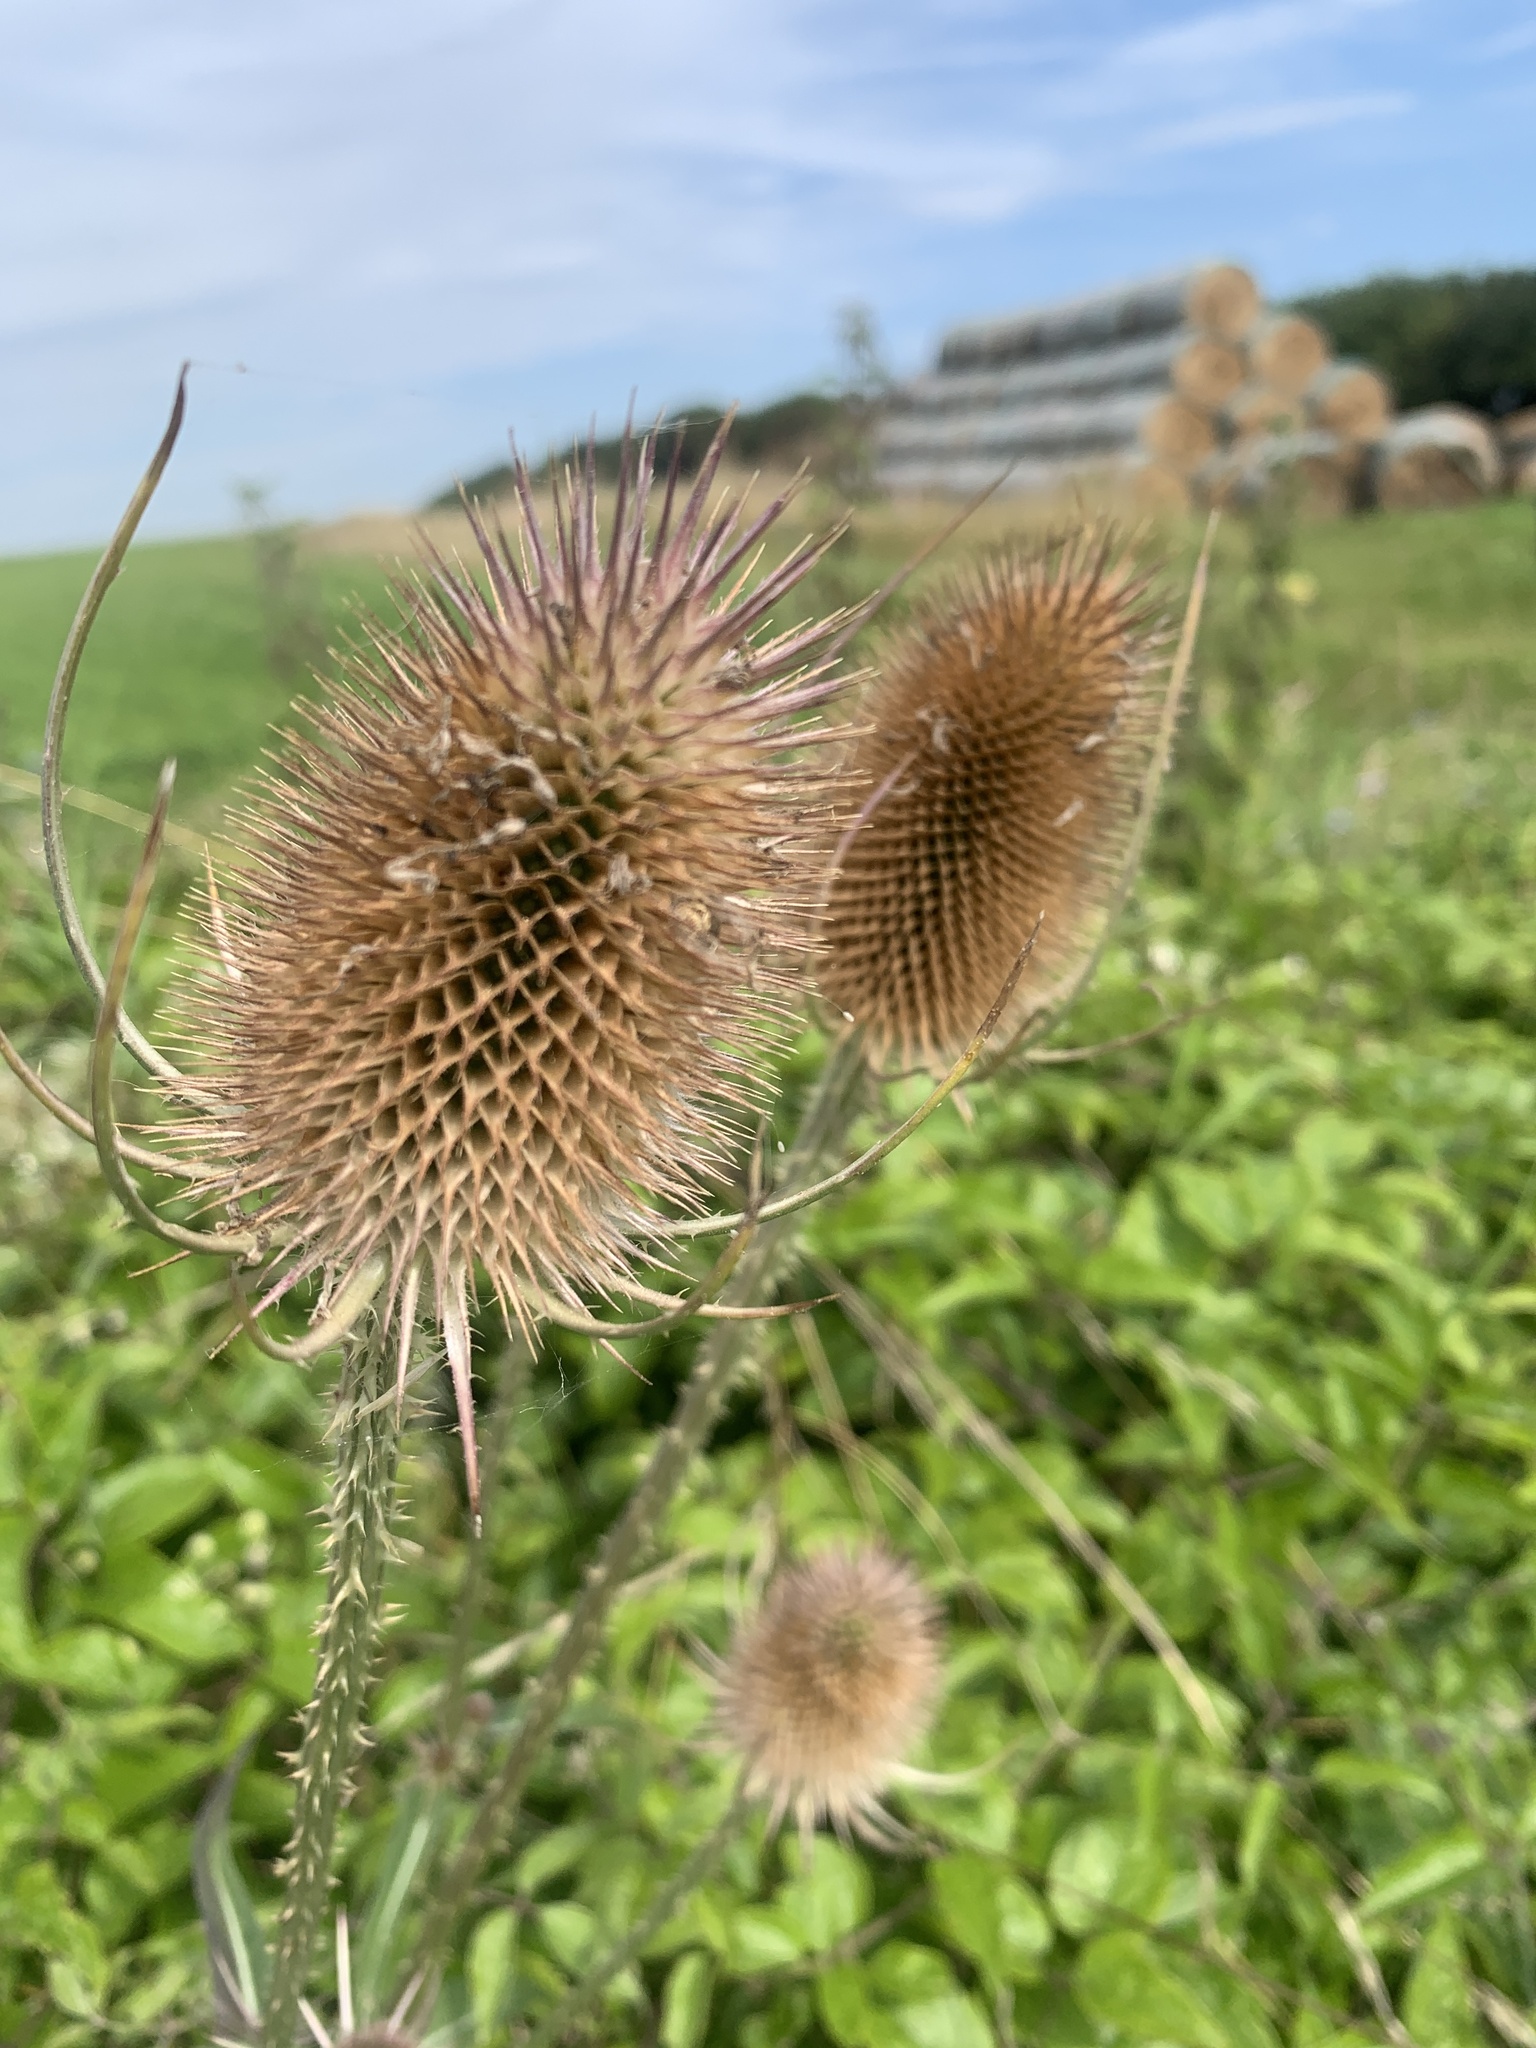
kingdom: Plantae
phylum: Tracheophyta
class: Magnoliopsida
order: Dipsacales
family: Caprifoliaceae
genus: Dipsacus
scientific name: Dipsacus fullonum
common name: Teasel
